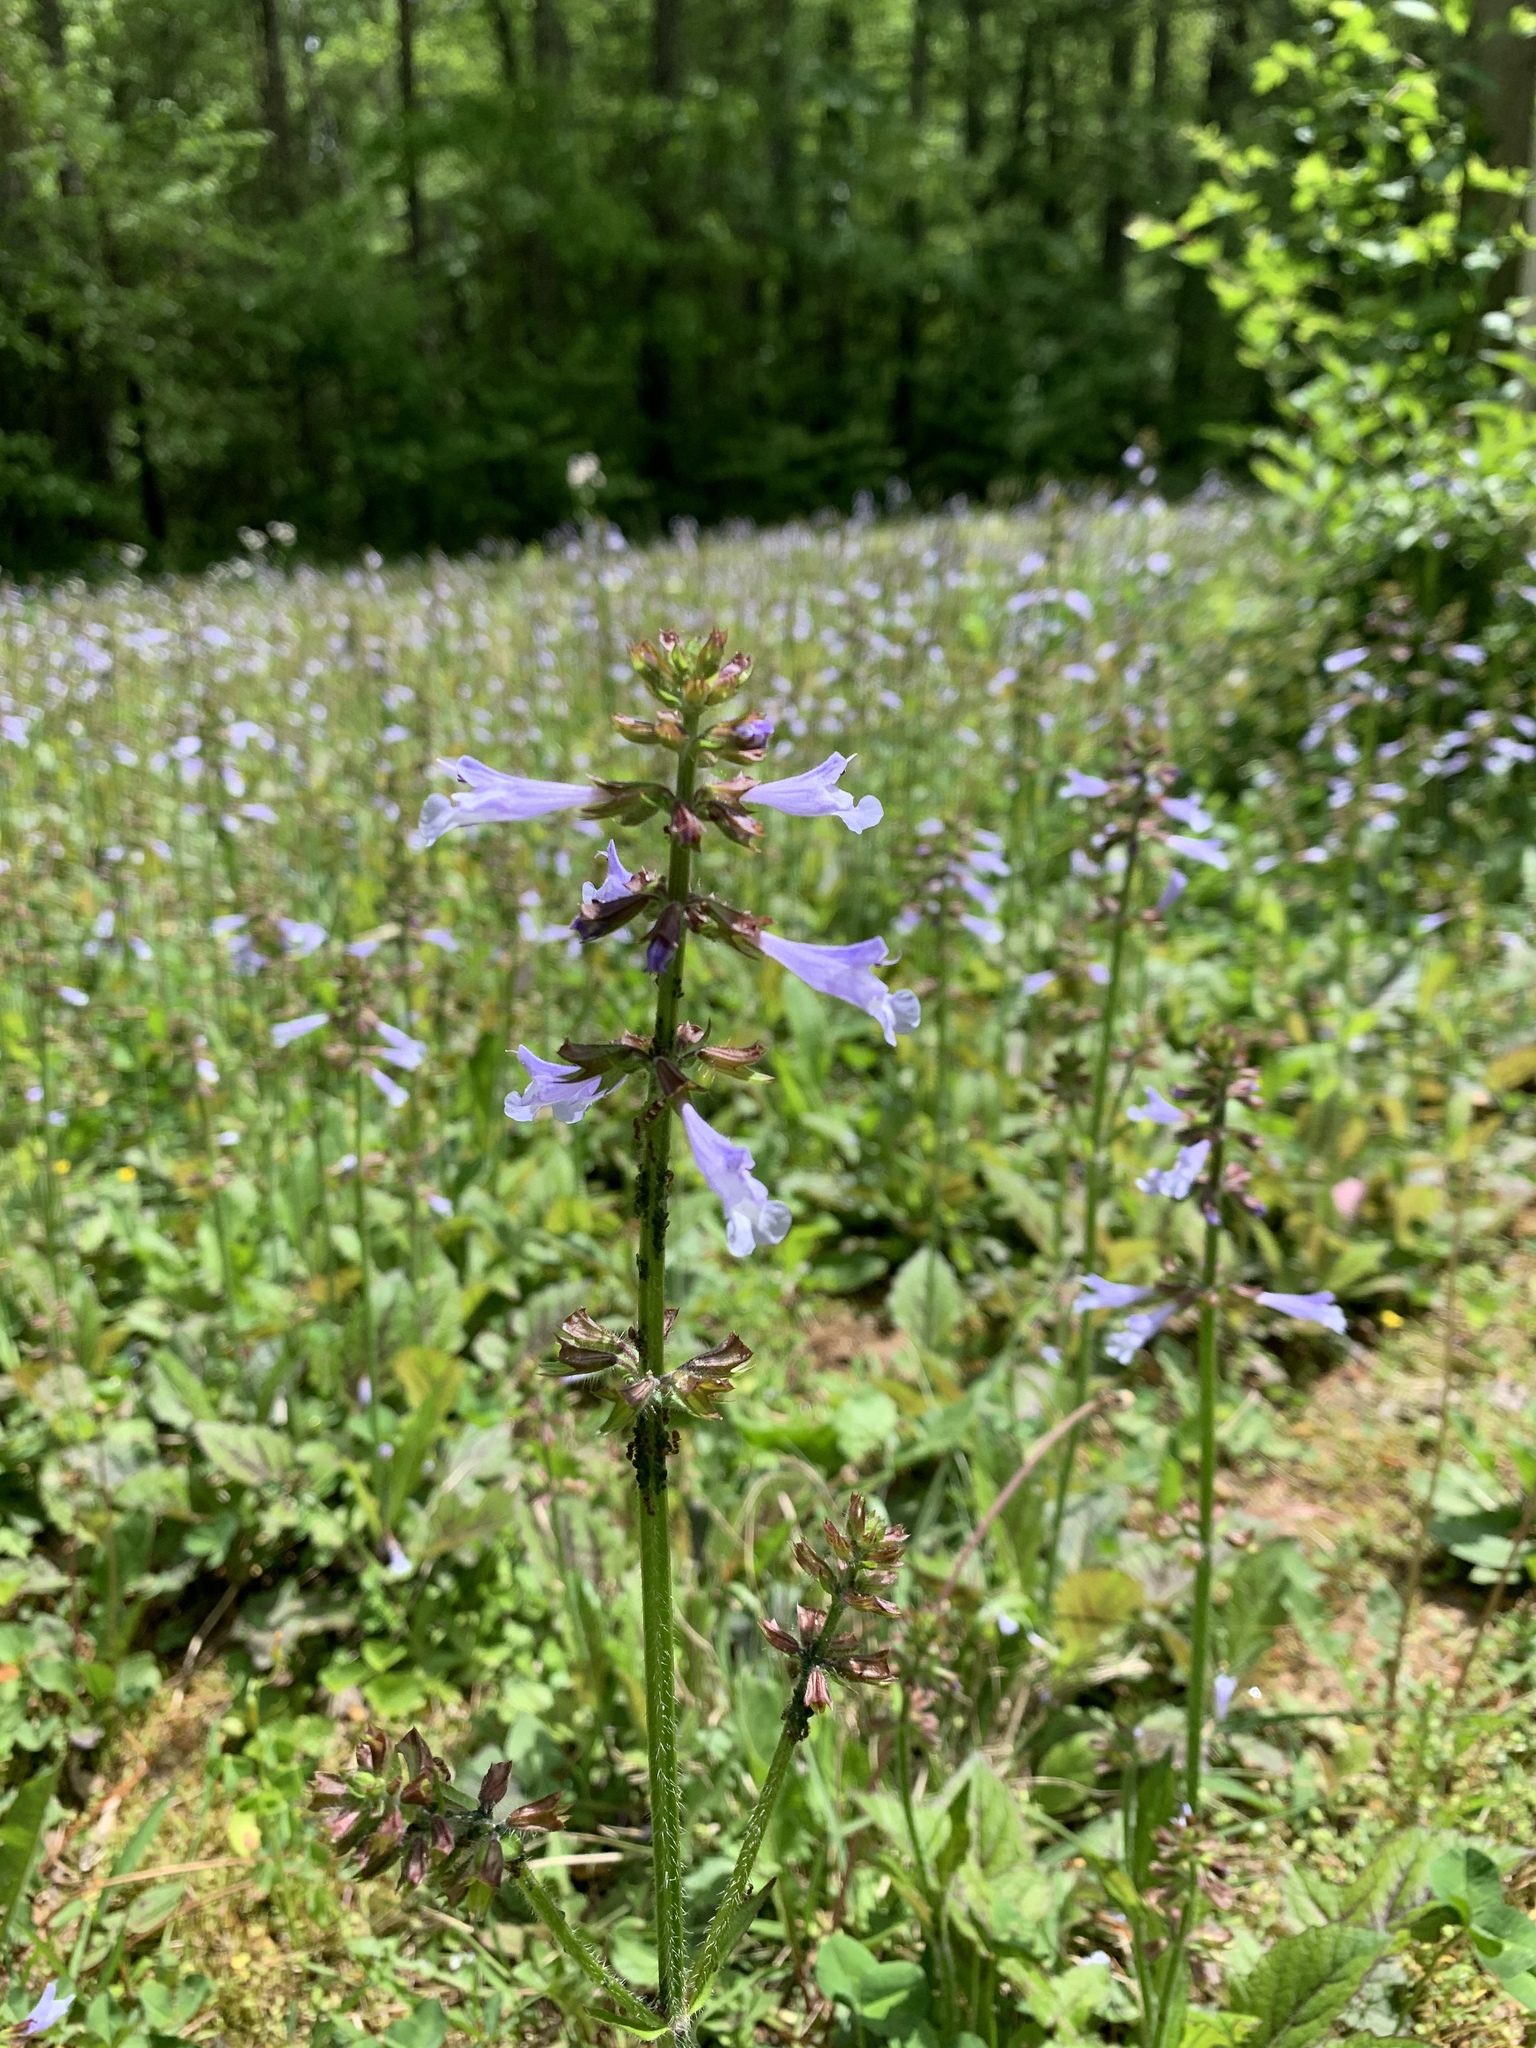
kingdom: Plantae
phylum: Tracheophyta
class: Magnoliopsida
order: Lamiales
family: Lamiaceae
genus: Salvia
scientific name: Salvia lyrata
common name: Cancerweed
